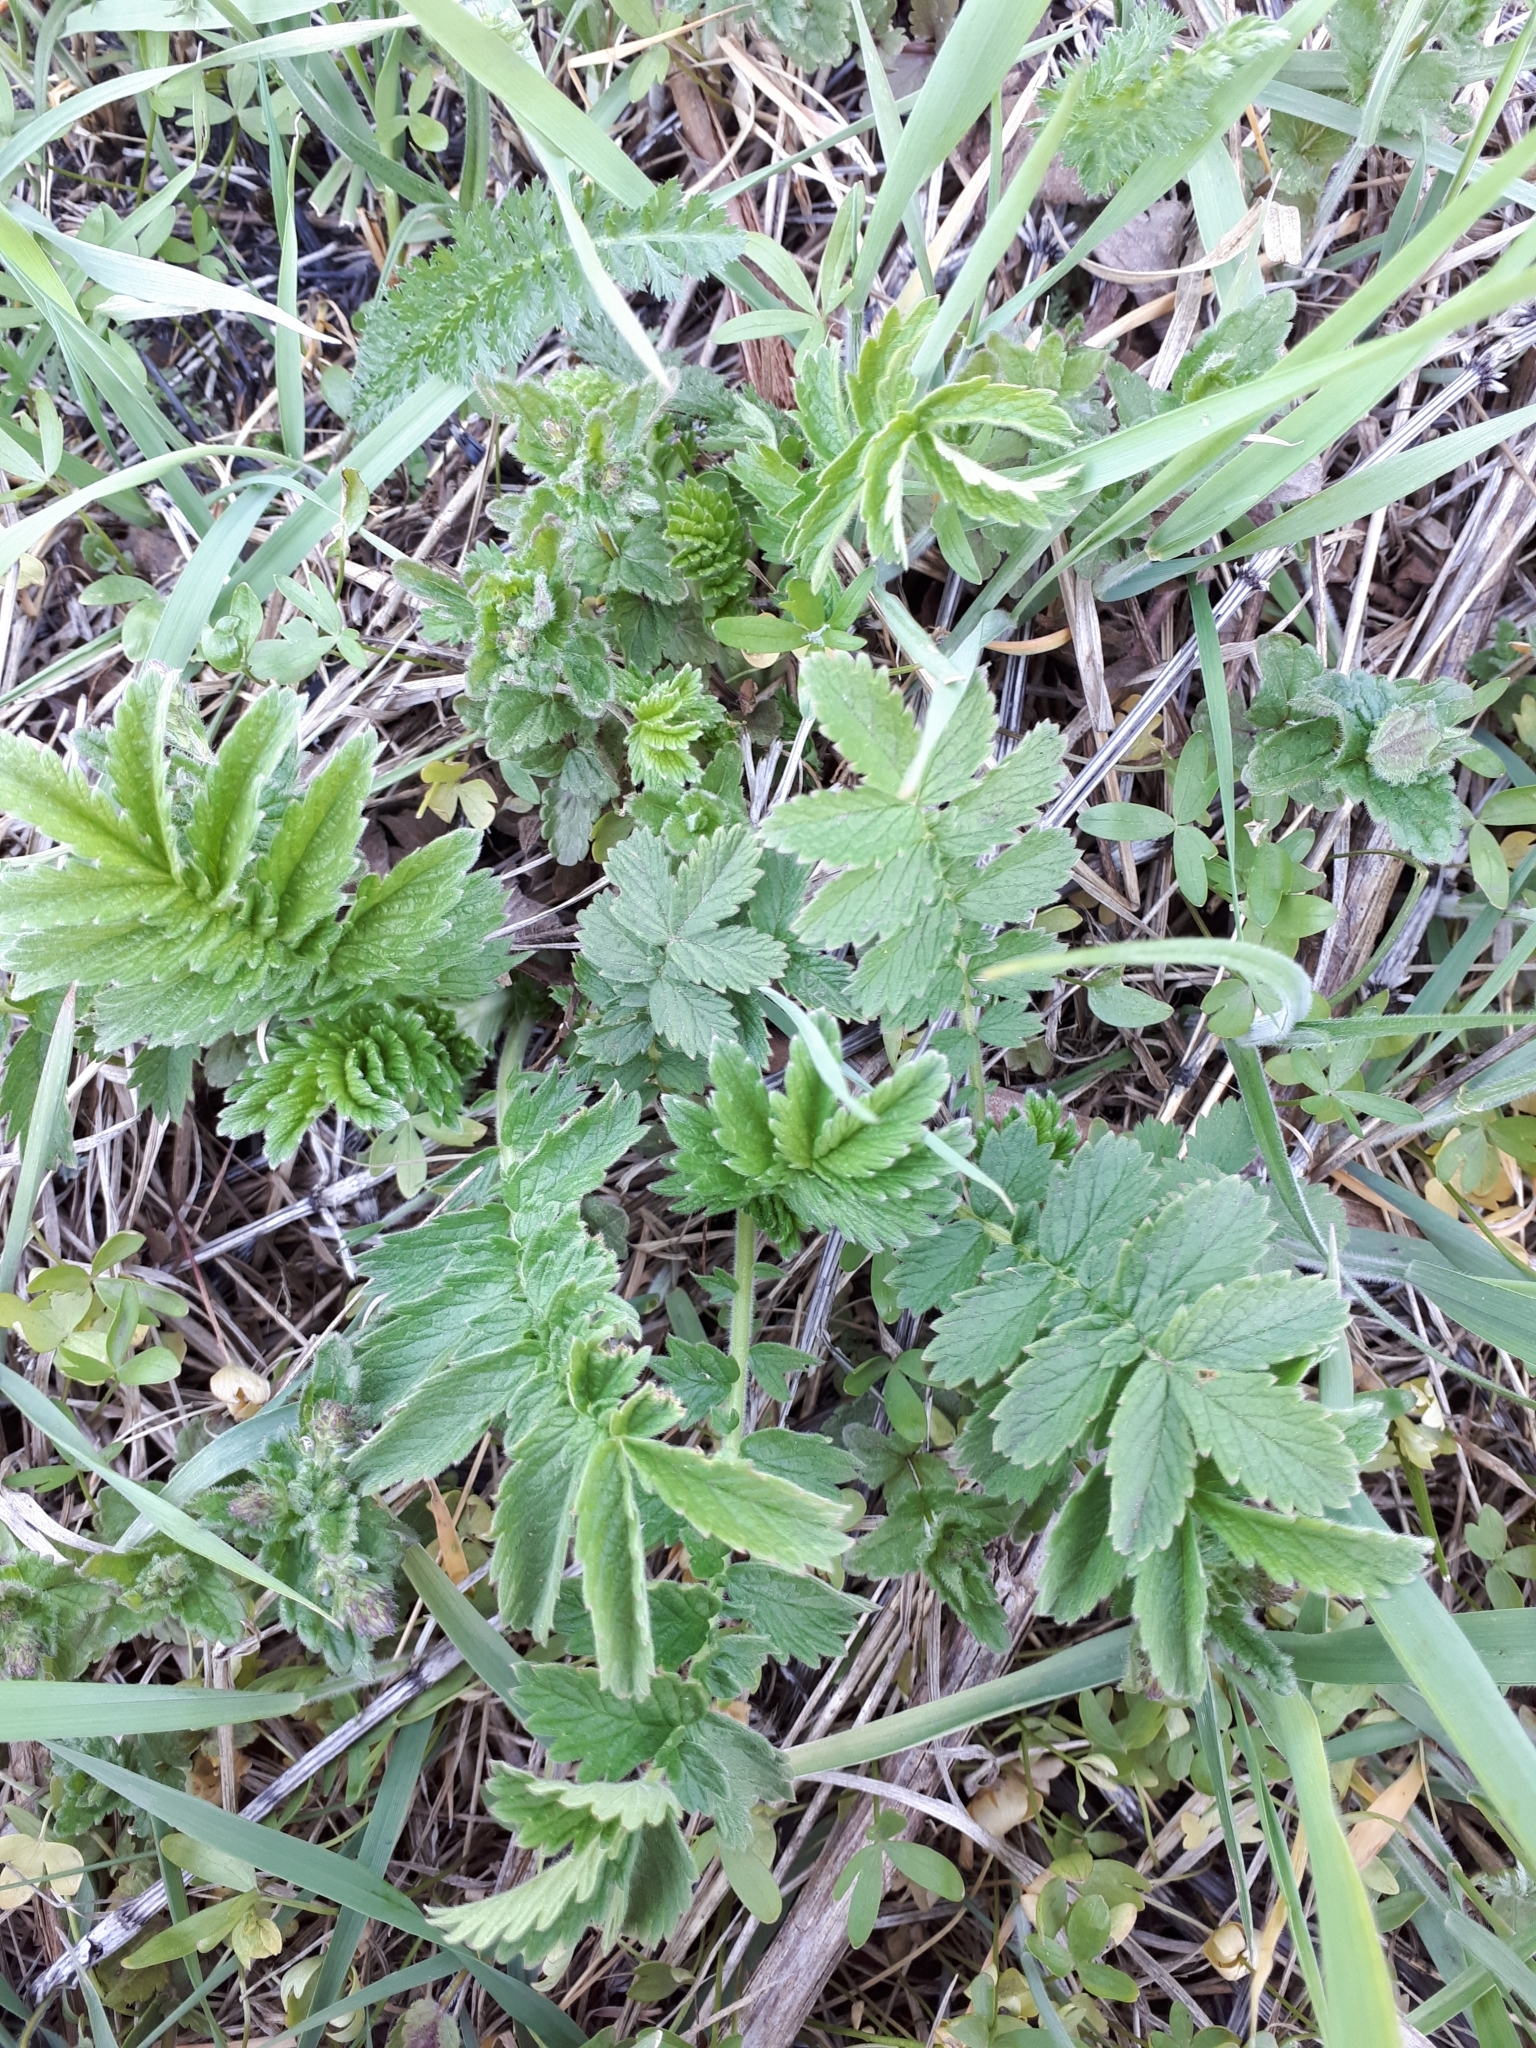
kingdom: Plantae
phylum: Tracheophyta
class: Magnoliopsida
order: Rosales
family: Rosaceae
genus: Agrimonia
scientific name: Agrimonia eupatoria
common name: Agrimony
